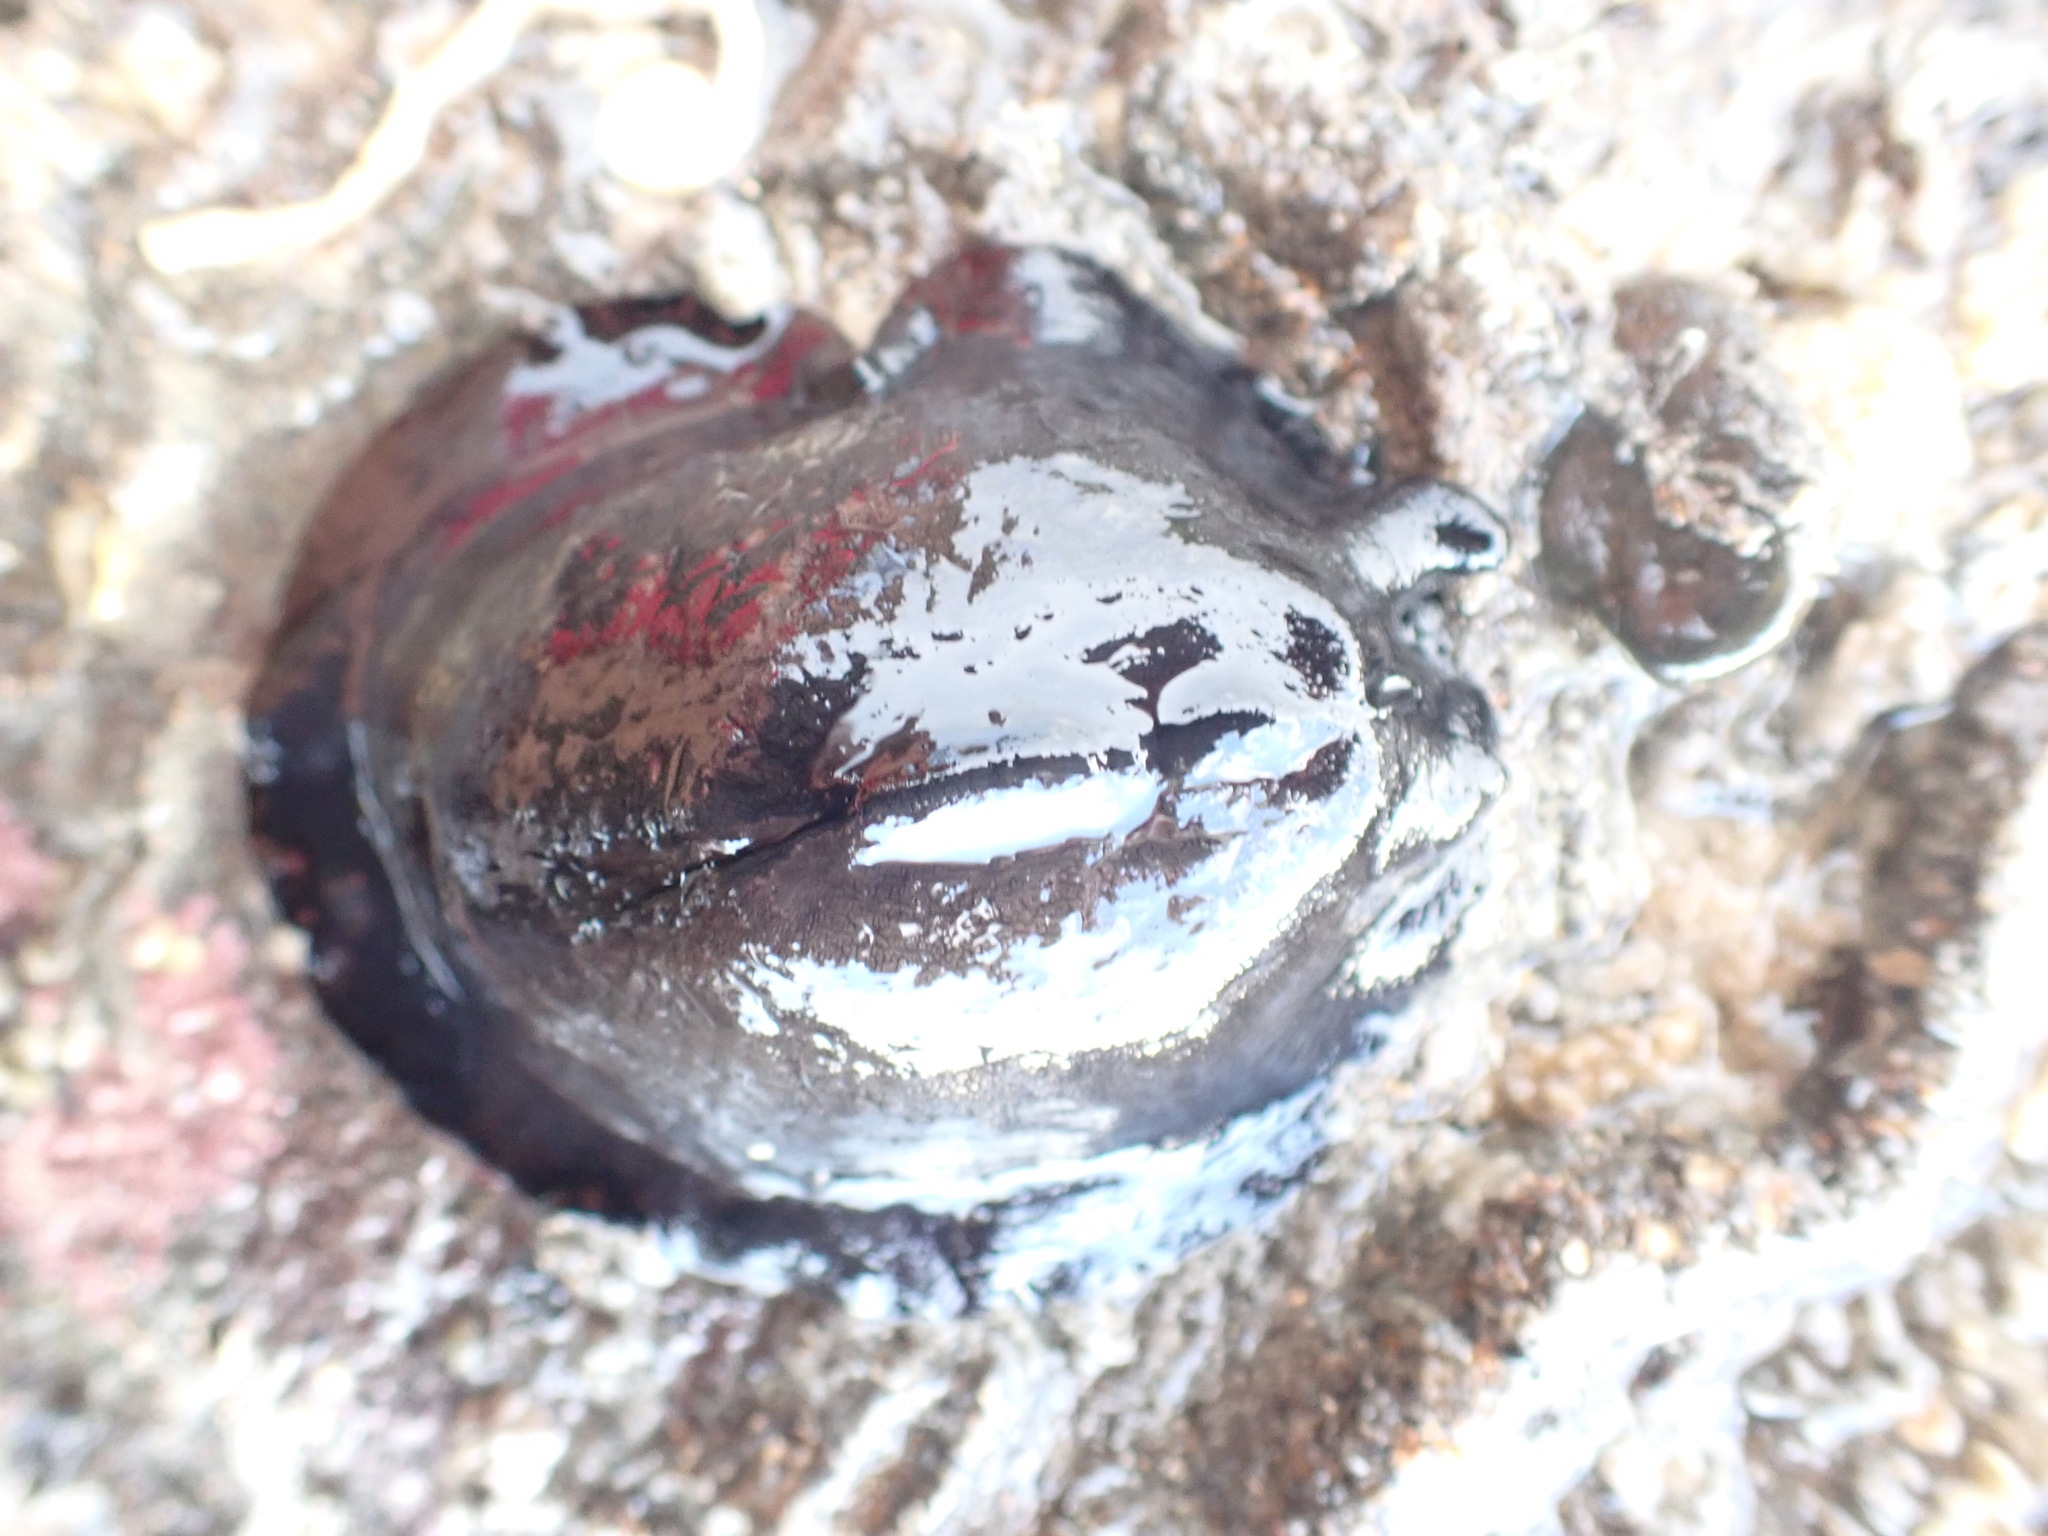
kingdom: Animalia
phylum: Mollusca
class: Gastropoda
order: Lepetellida
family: Fissurellidae
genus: Scutus
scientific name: Scutus breviculus
